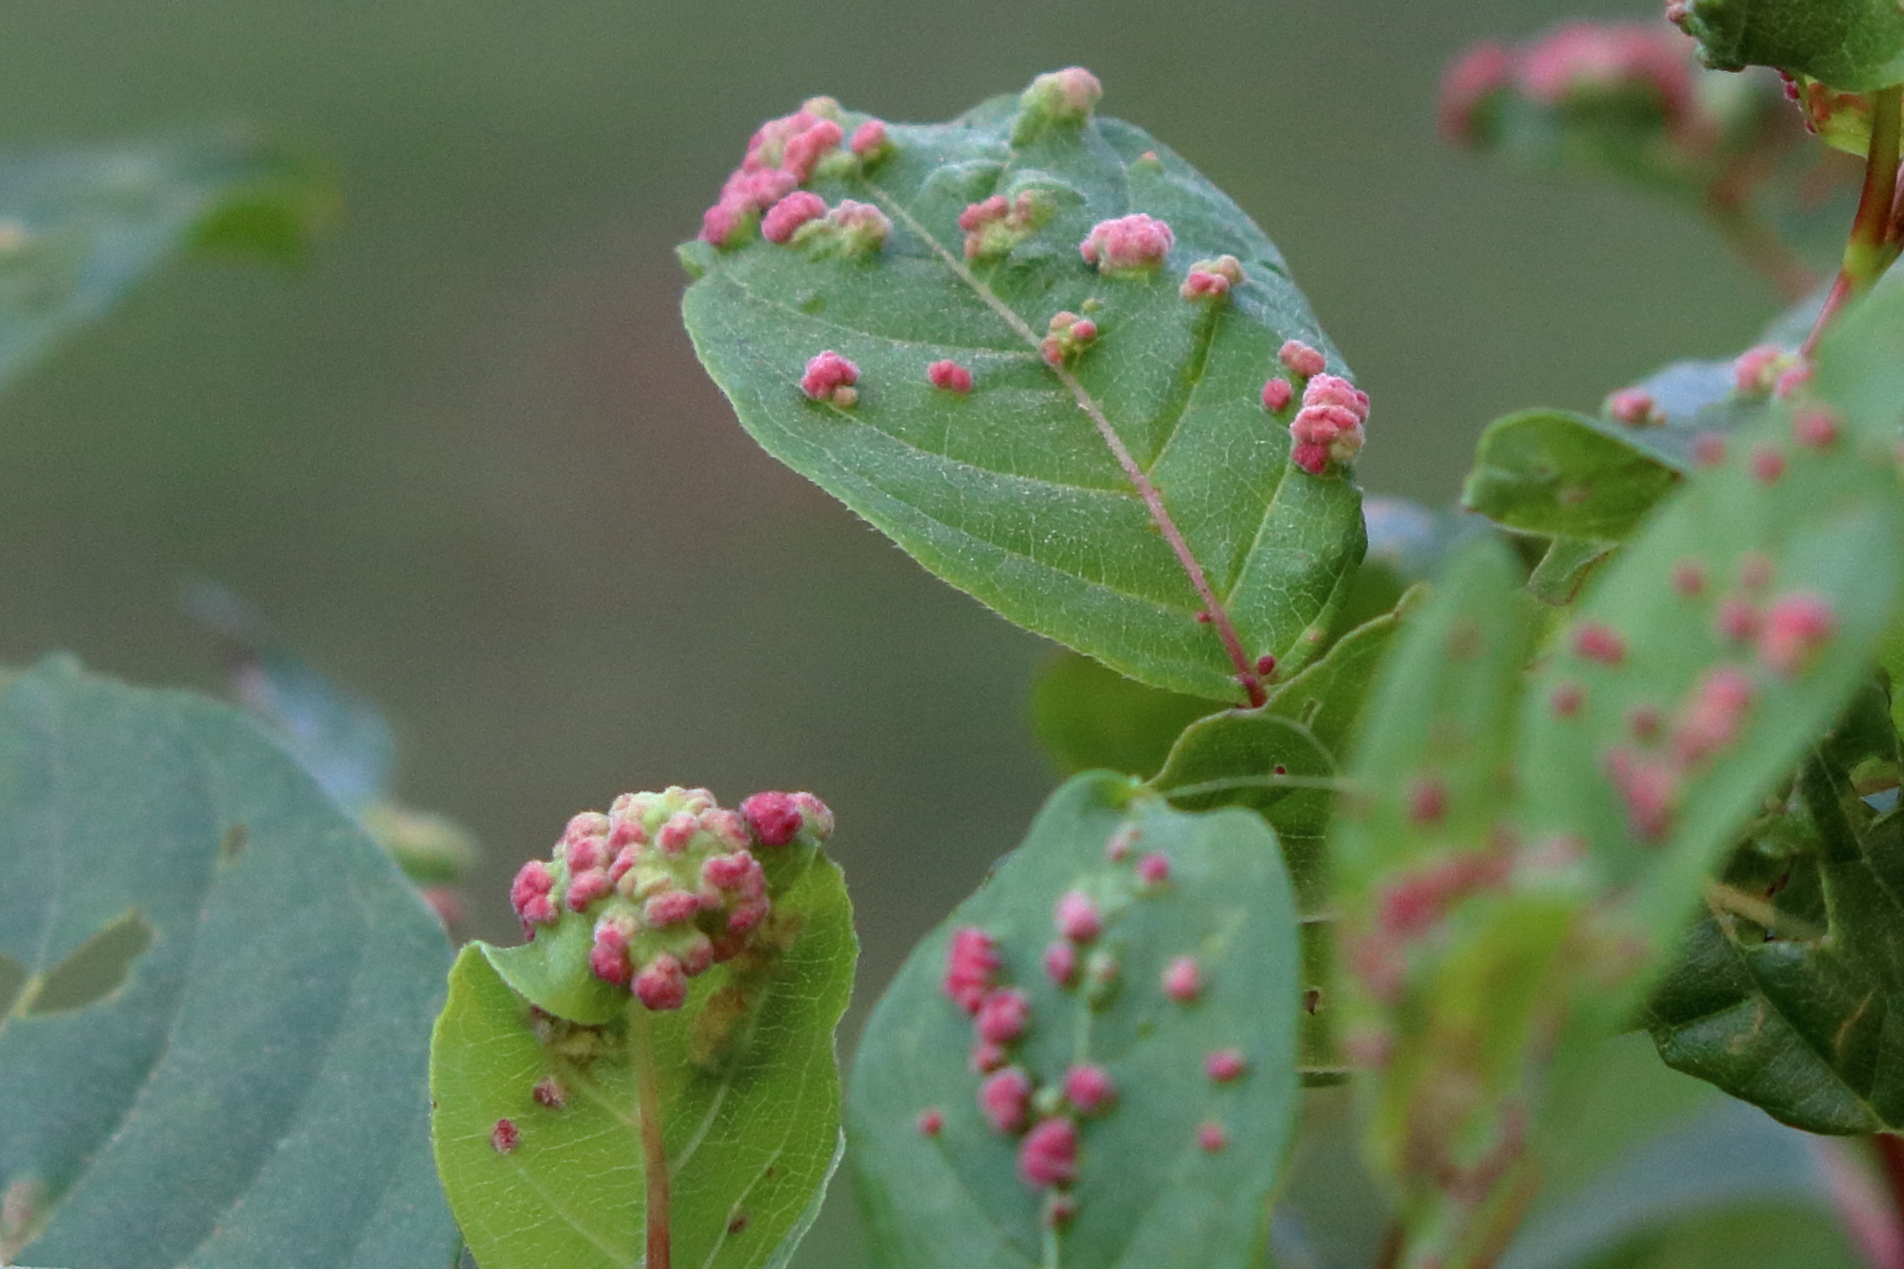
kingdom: Animalia
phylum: Arthropoda
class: Arachnida
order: Trombidiformes
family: Eriophyidae
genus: Aculops
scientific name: Aculops
